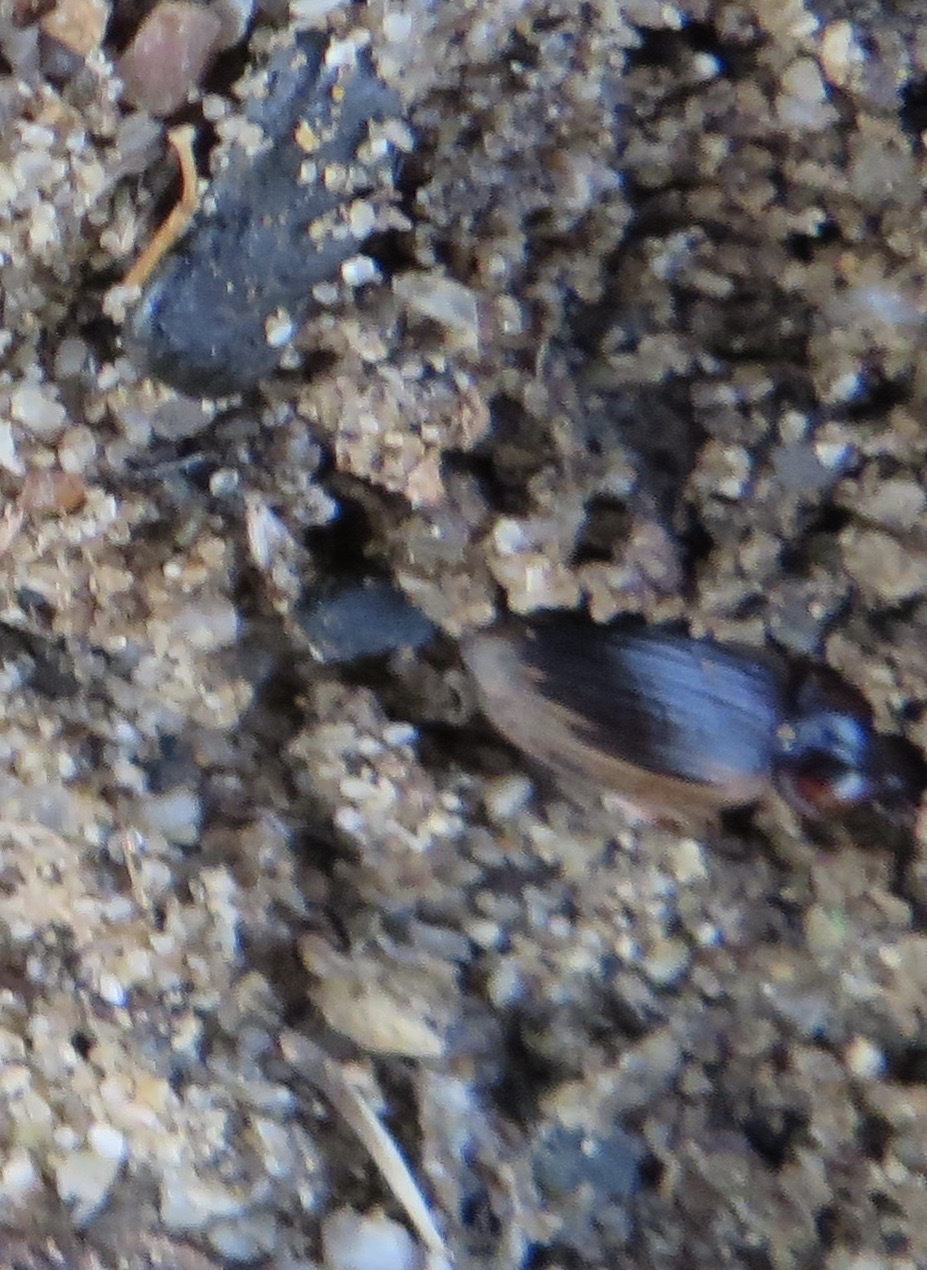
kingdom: Animalia
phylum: Arthropoda
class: Insecta
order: Coleoptera
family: Carabidae
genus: Tanystoma
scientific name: Tanystoma maculicolle
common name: Tule beetle
